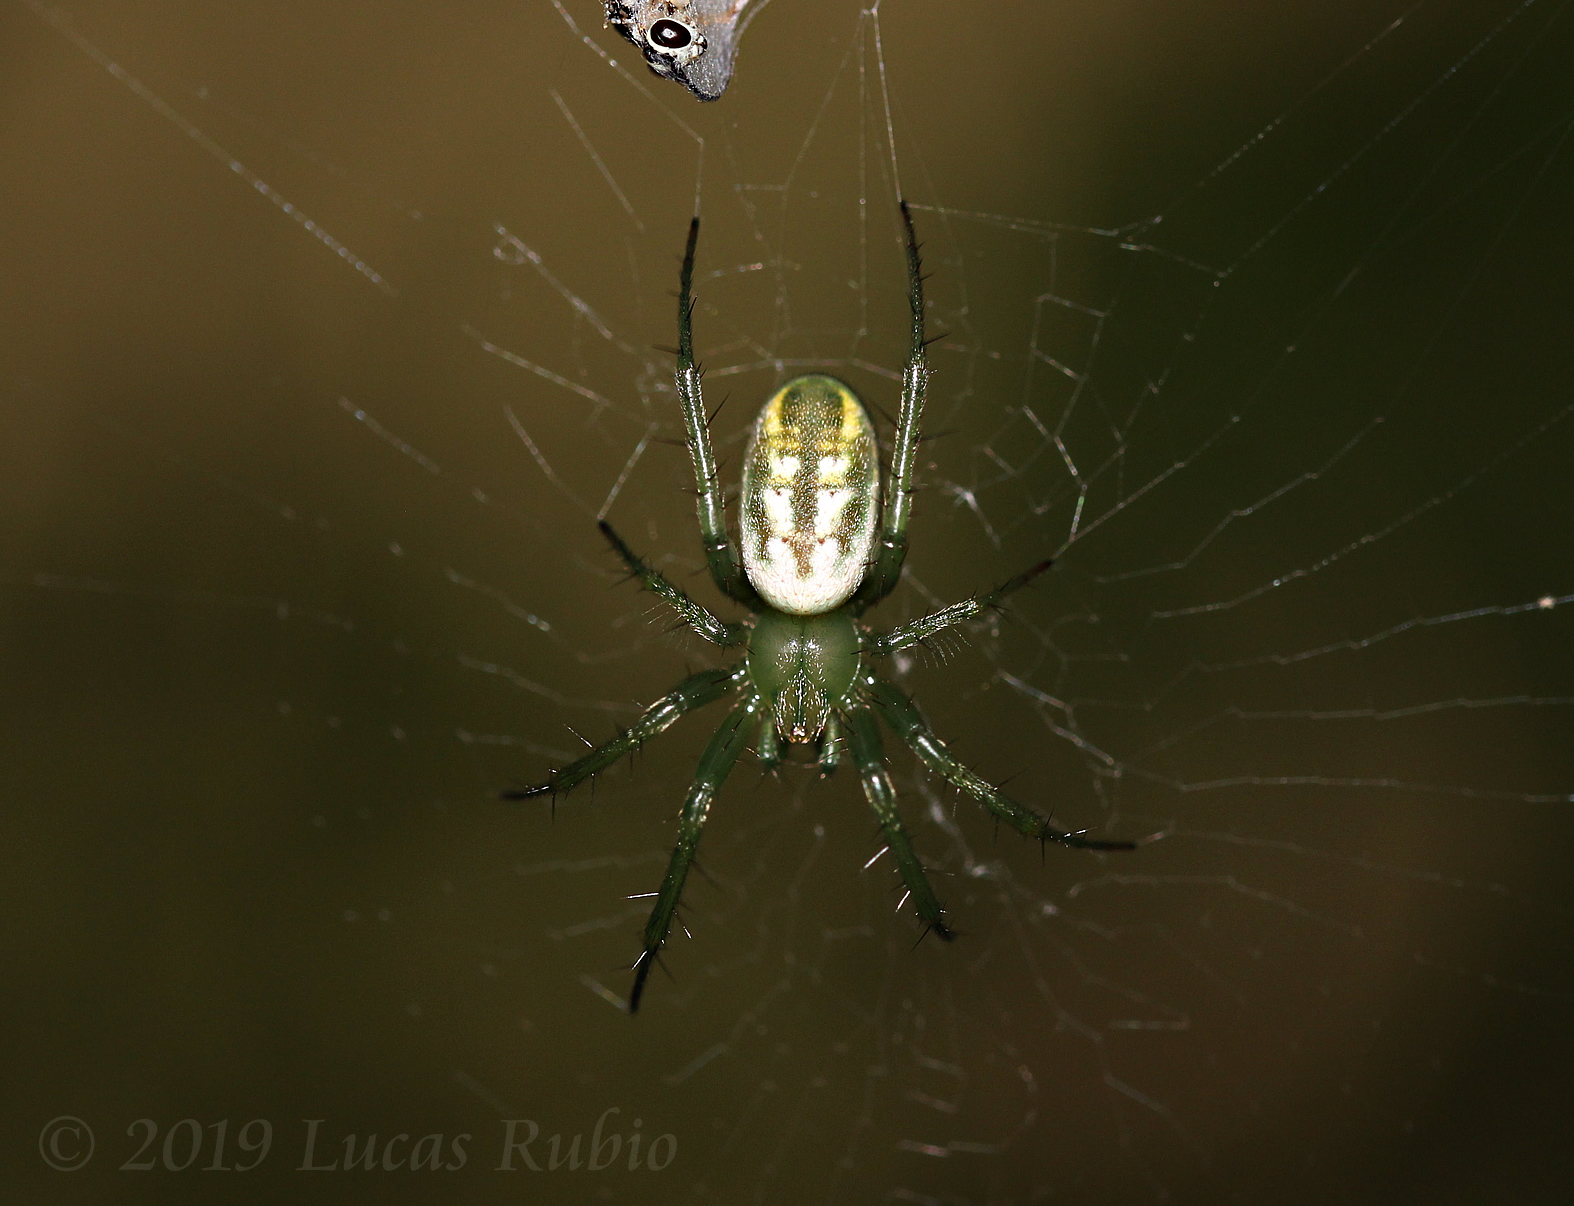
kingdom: Animalia
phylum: Arthropoda
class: Arachnida
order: Araneae
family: Araneidae
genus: Mangora
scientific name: Mangora lactea
